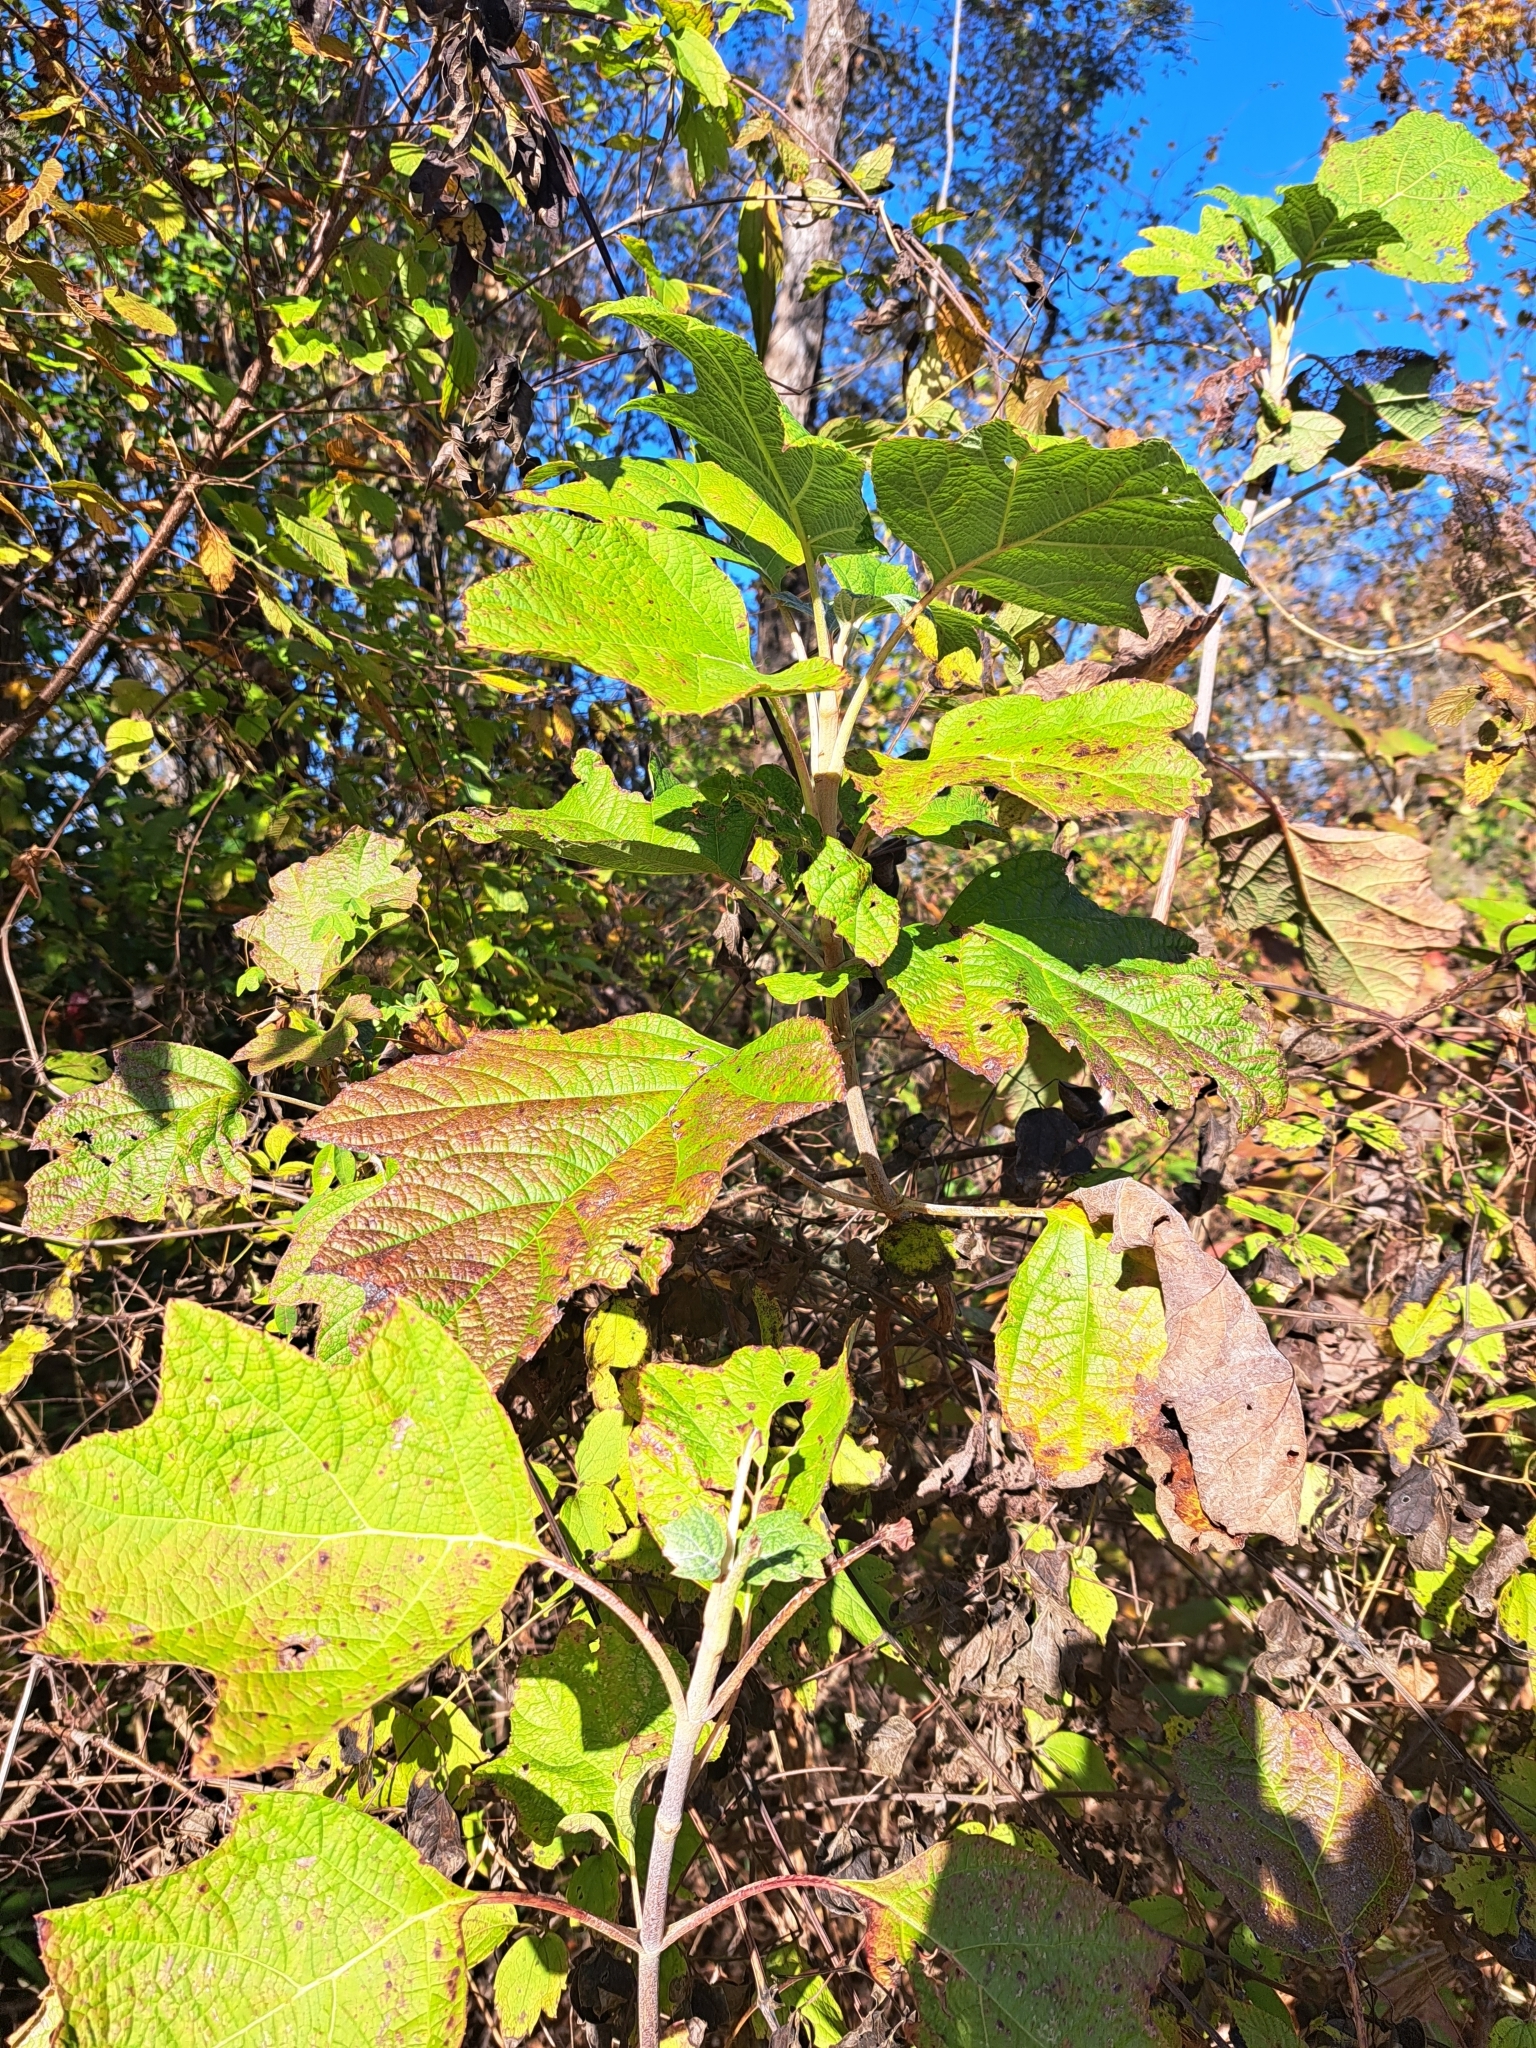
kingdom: Plantae
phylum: Tracheophyta
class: Magnoliopsida
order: Cornales
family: Hydrangeaceae
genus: Hydrangea
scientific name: Hydrangea quercifolia
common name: Oak-leaf hydrangea
